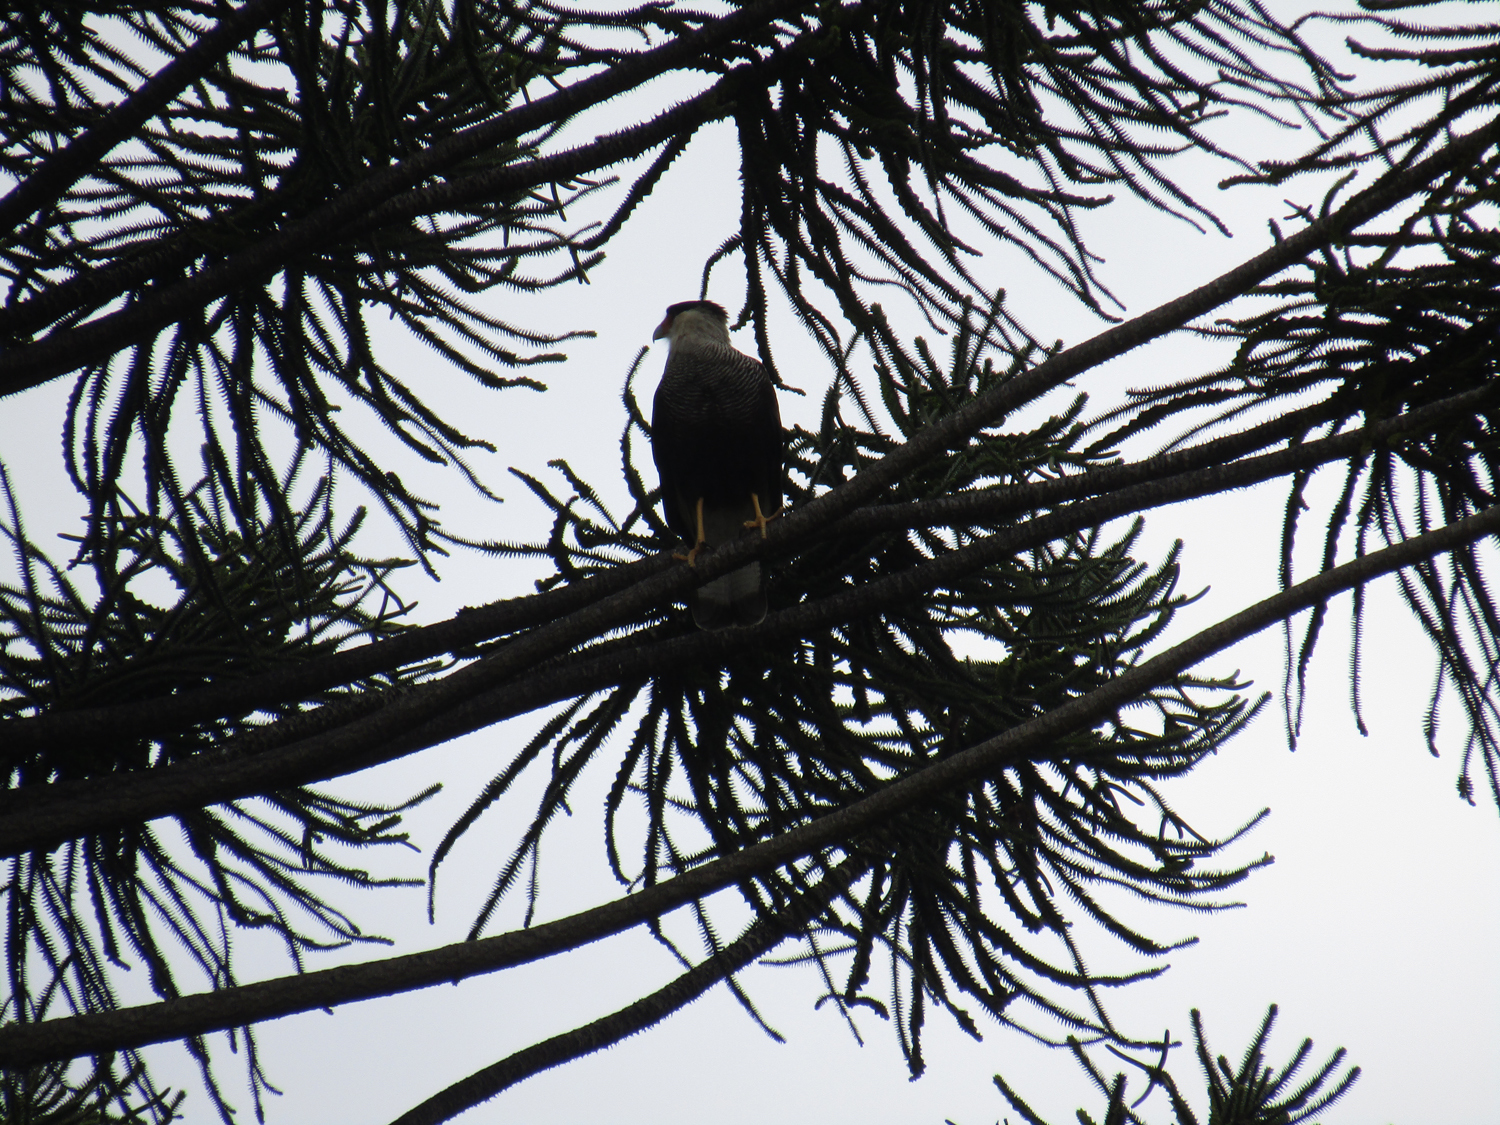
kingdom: Animalia
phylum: Chordata
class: Aves
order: Falconiformes
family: Falconidae
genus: Caracara
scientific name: Caracara plancus
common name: Southern caracara
